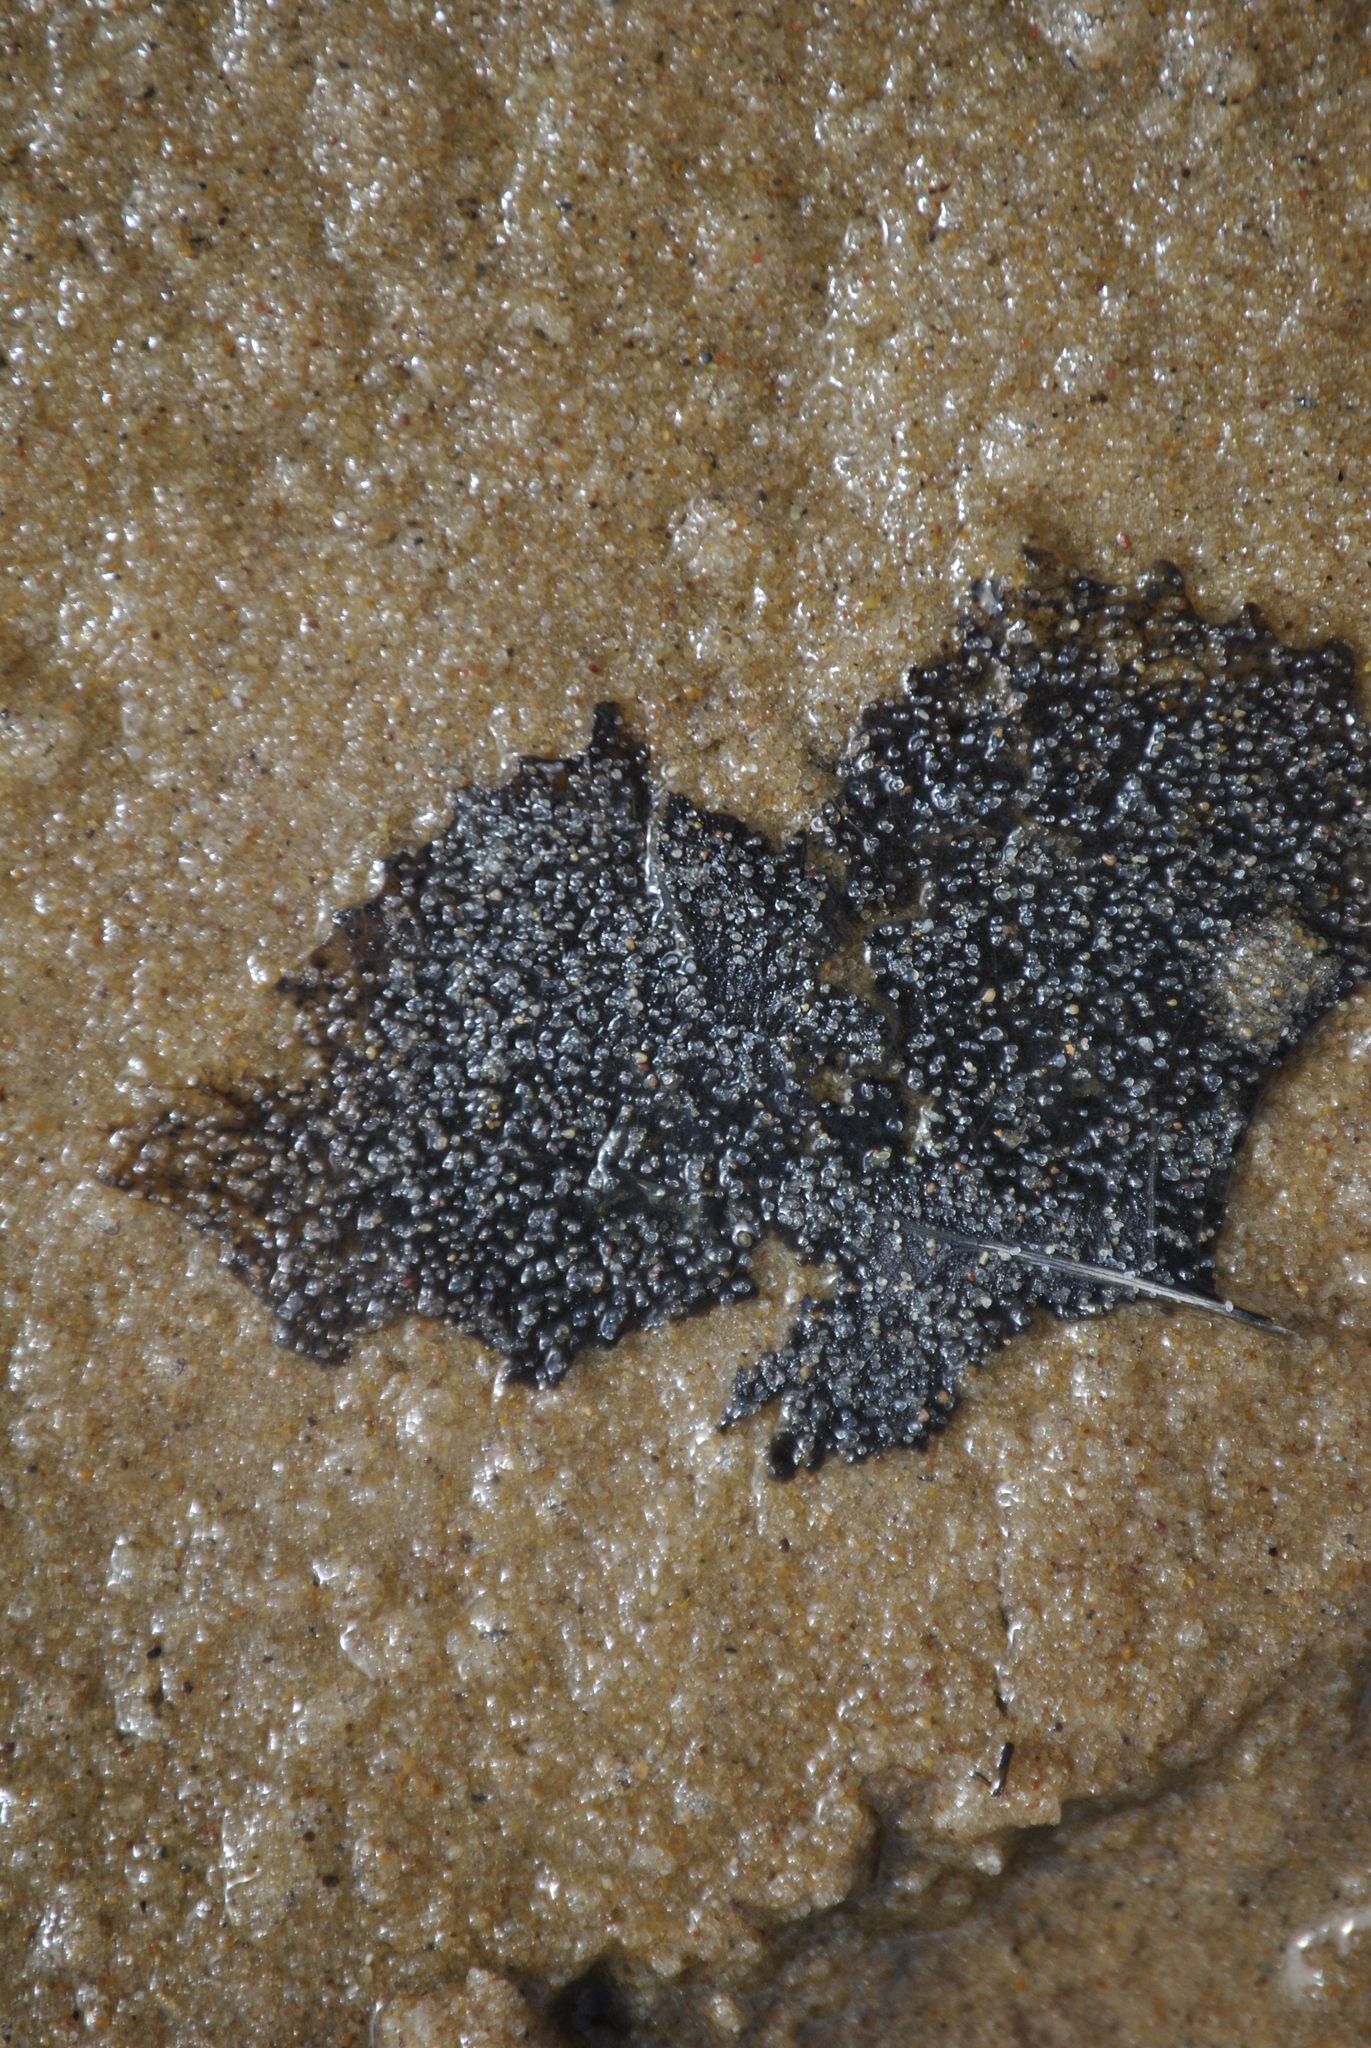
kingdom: Plantae
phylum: Tracheophyta
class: Magnoliopsida
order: Malpighiales
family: Salicaceae
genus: Populus
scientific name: Populus deltoides
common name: Eastern cottonwood
